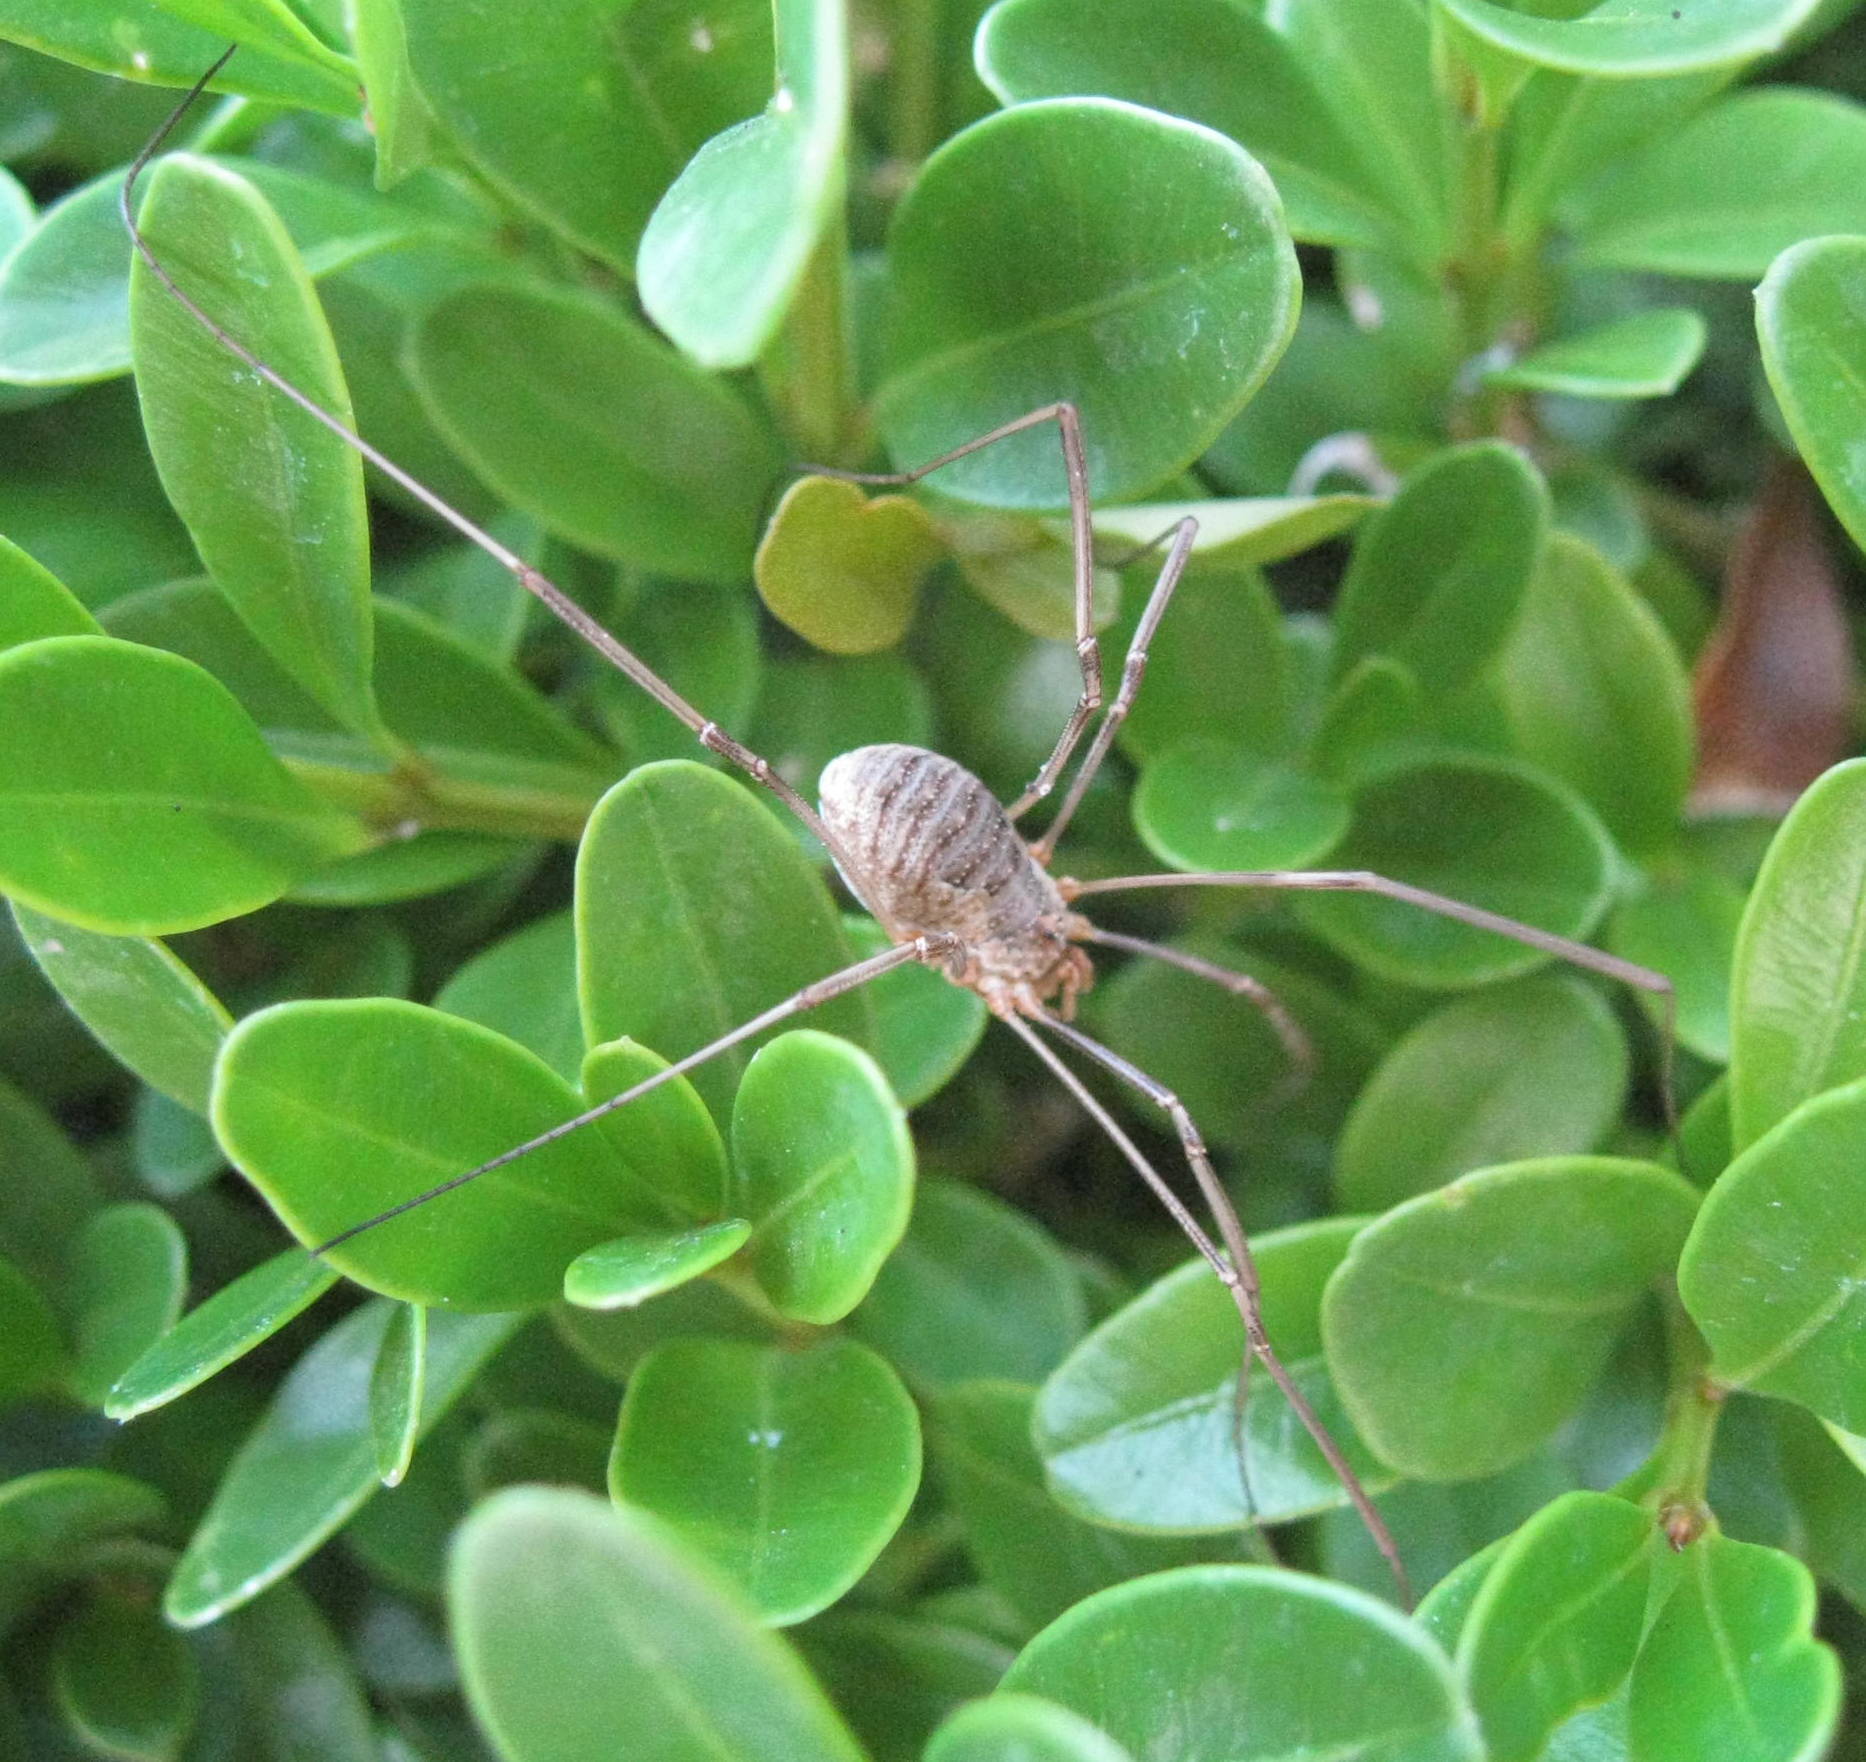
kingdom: Animalia
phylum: Arthropoda
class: Arachnida
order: Opiliones
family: Phalangiidae
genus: Phalangium
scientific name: Phalangium opilio
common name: Daddy longleg
